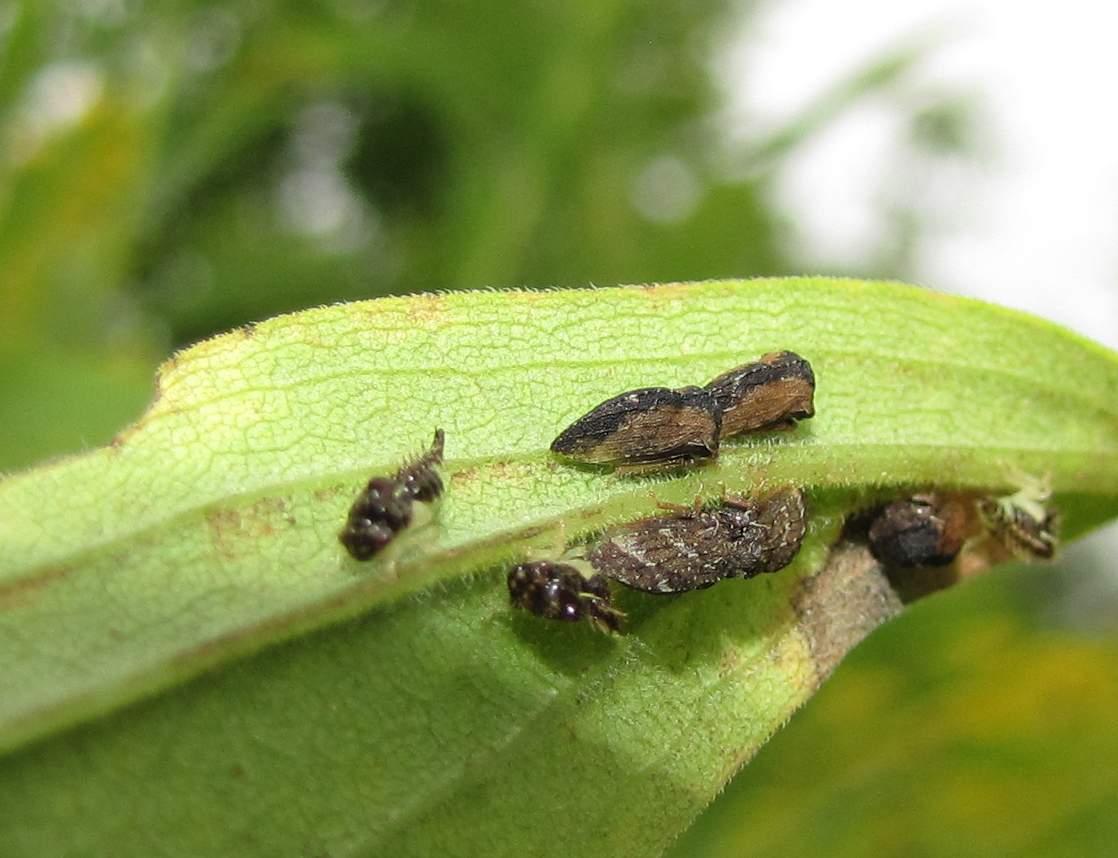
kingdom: Animalia
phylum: Arthropoda
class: Insecta
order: Hemiptera
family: Membracidae
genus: Publilia
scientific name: Publilia concava
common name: Aster treehopper
